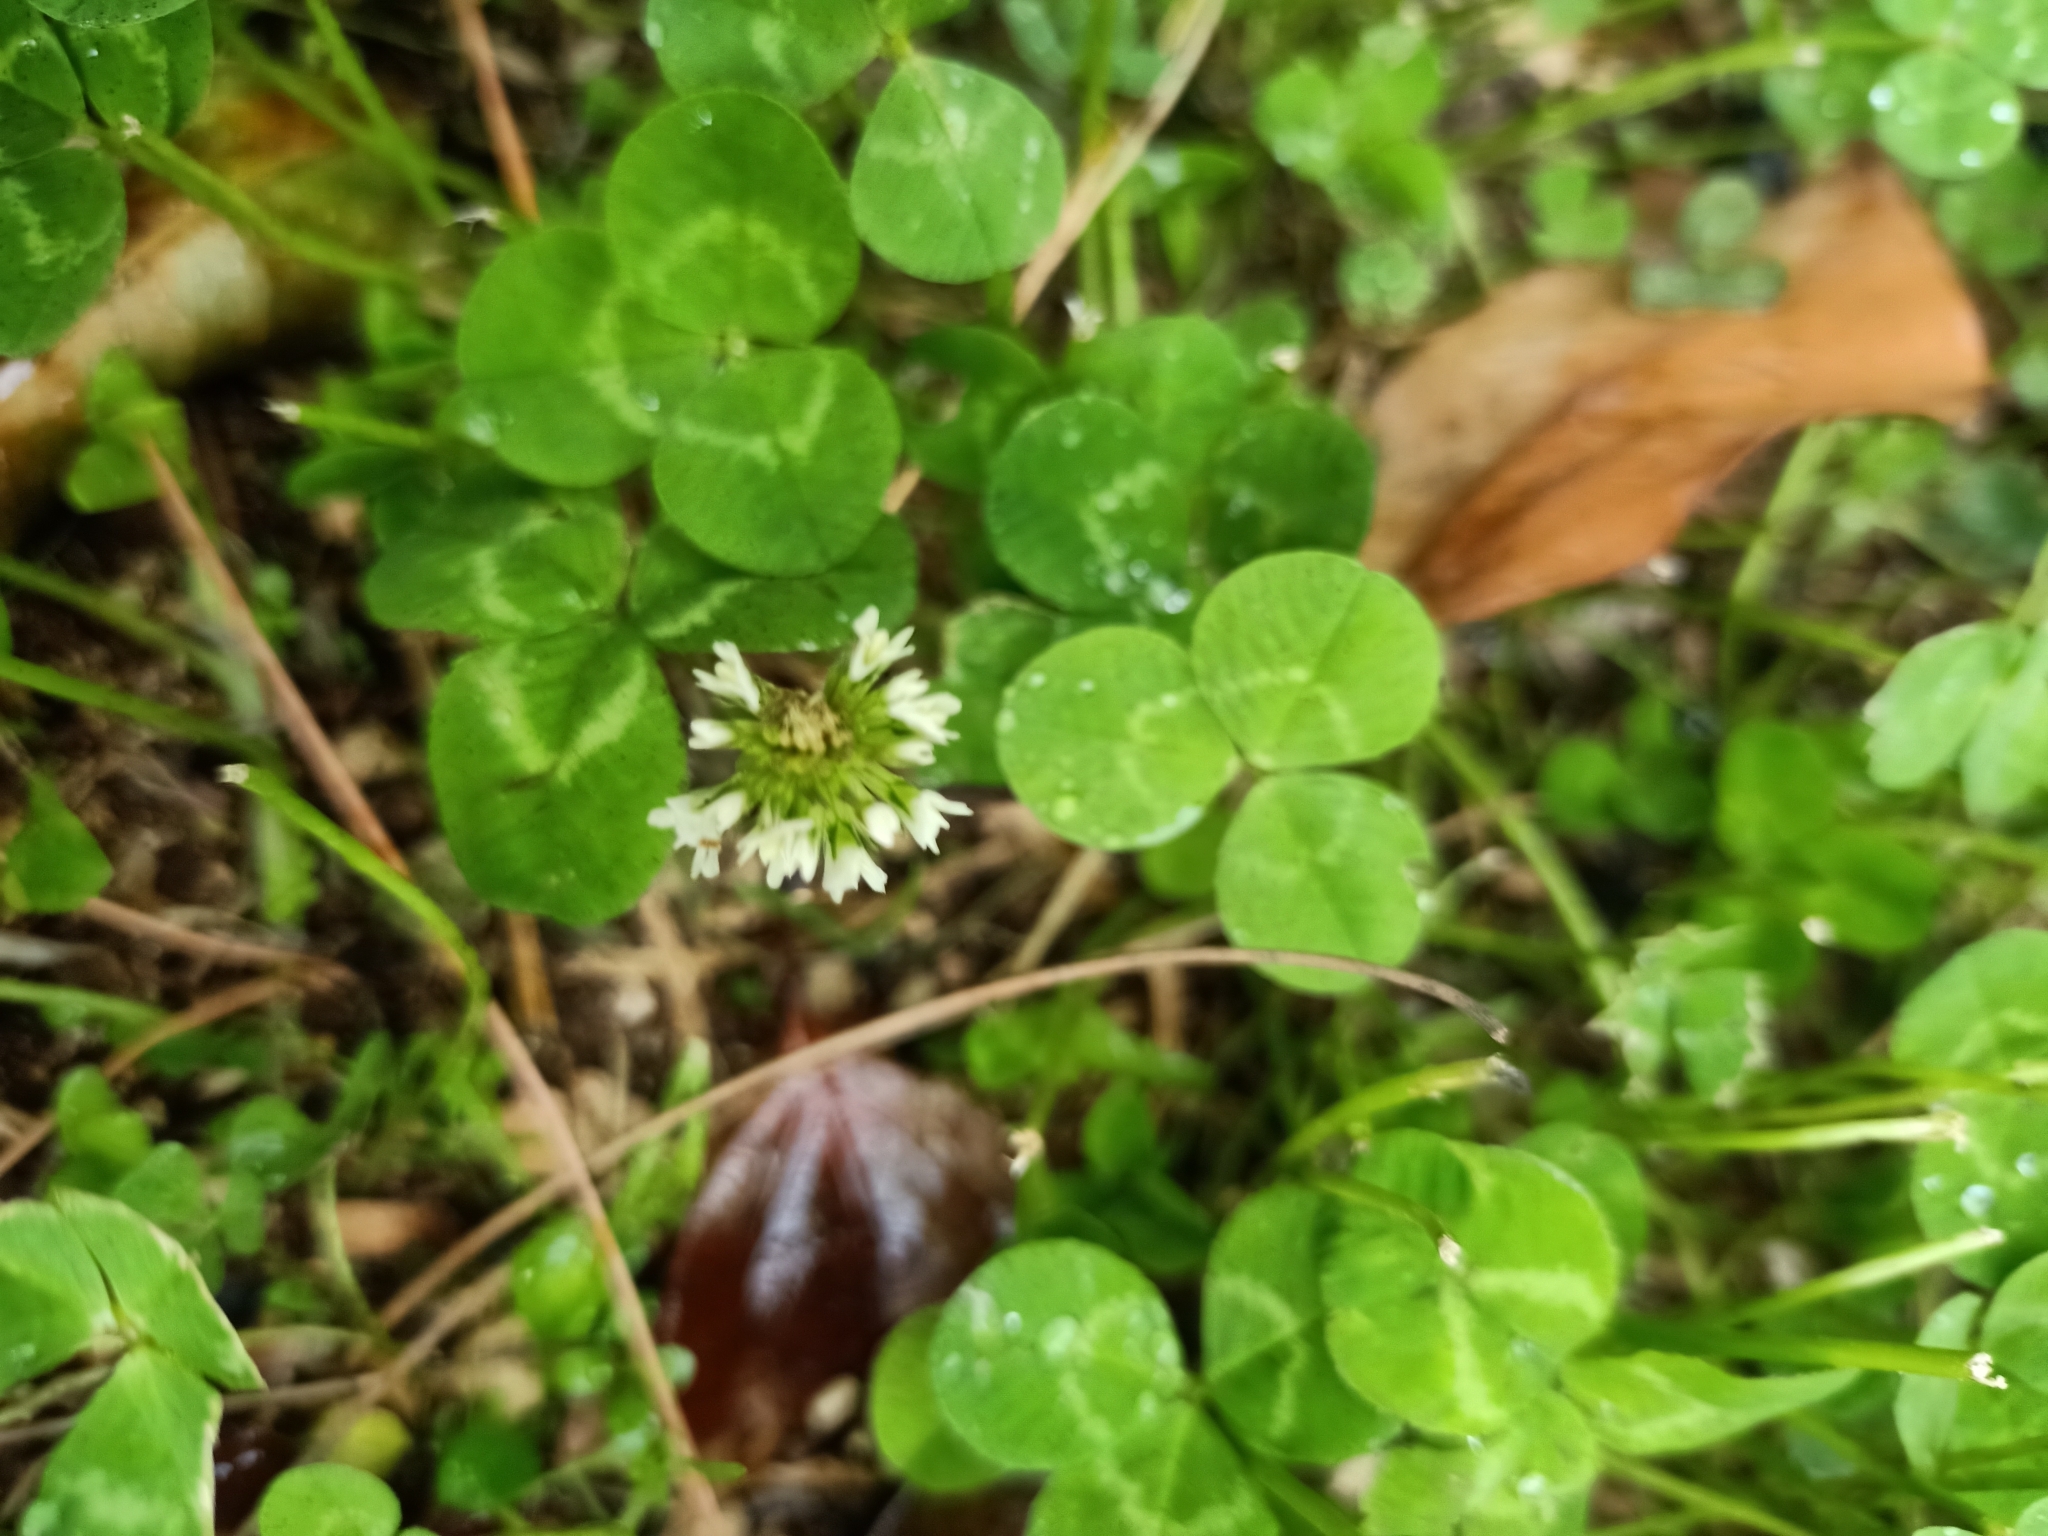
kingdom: Plantae
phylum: Tracheophyta
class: Magnoliopsida
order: Fabales
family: Fabaceae
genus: Trifolium
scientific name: Trifolium repens
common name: White clover
